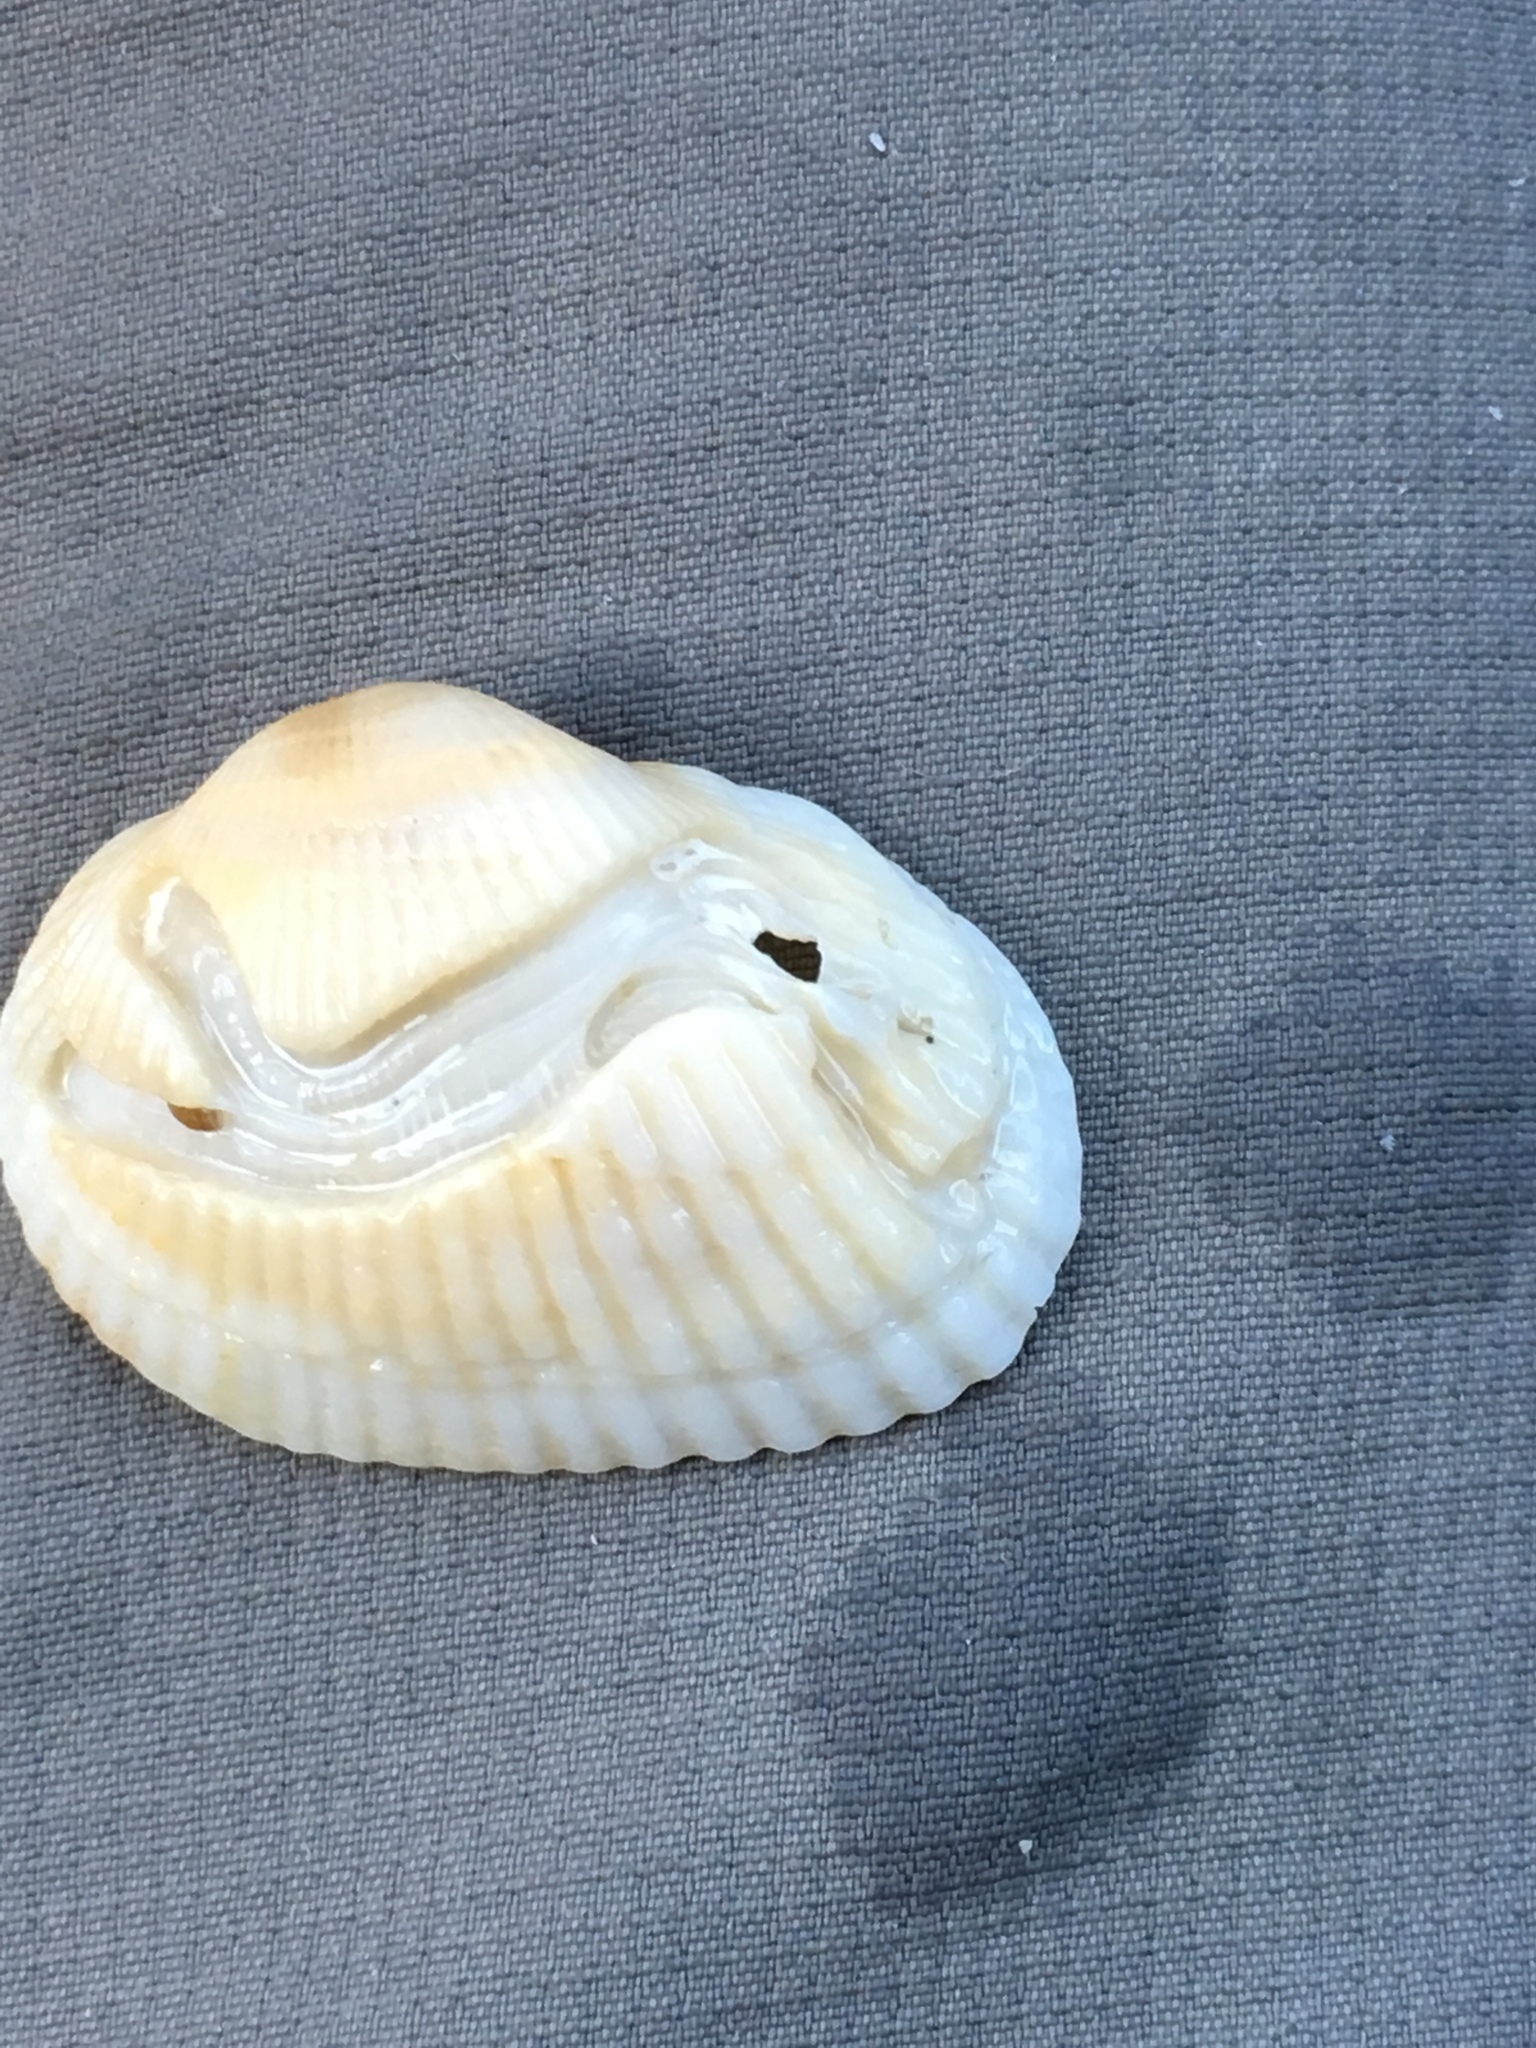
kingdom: Animalia
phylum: Mollusca
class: Bivalvia
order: Arcida
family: Arcidae
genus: Anadara
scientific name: Anadara transversa
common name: Transverse ark
